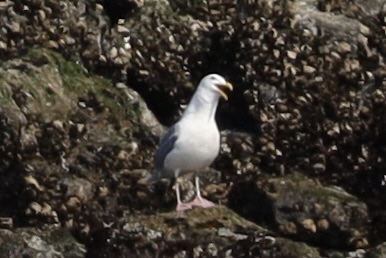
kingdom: Animalia
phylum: Chordata
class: Aves
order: Charadriiformes
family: Laridae
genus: Larus
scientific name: Larus
